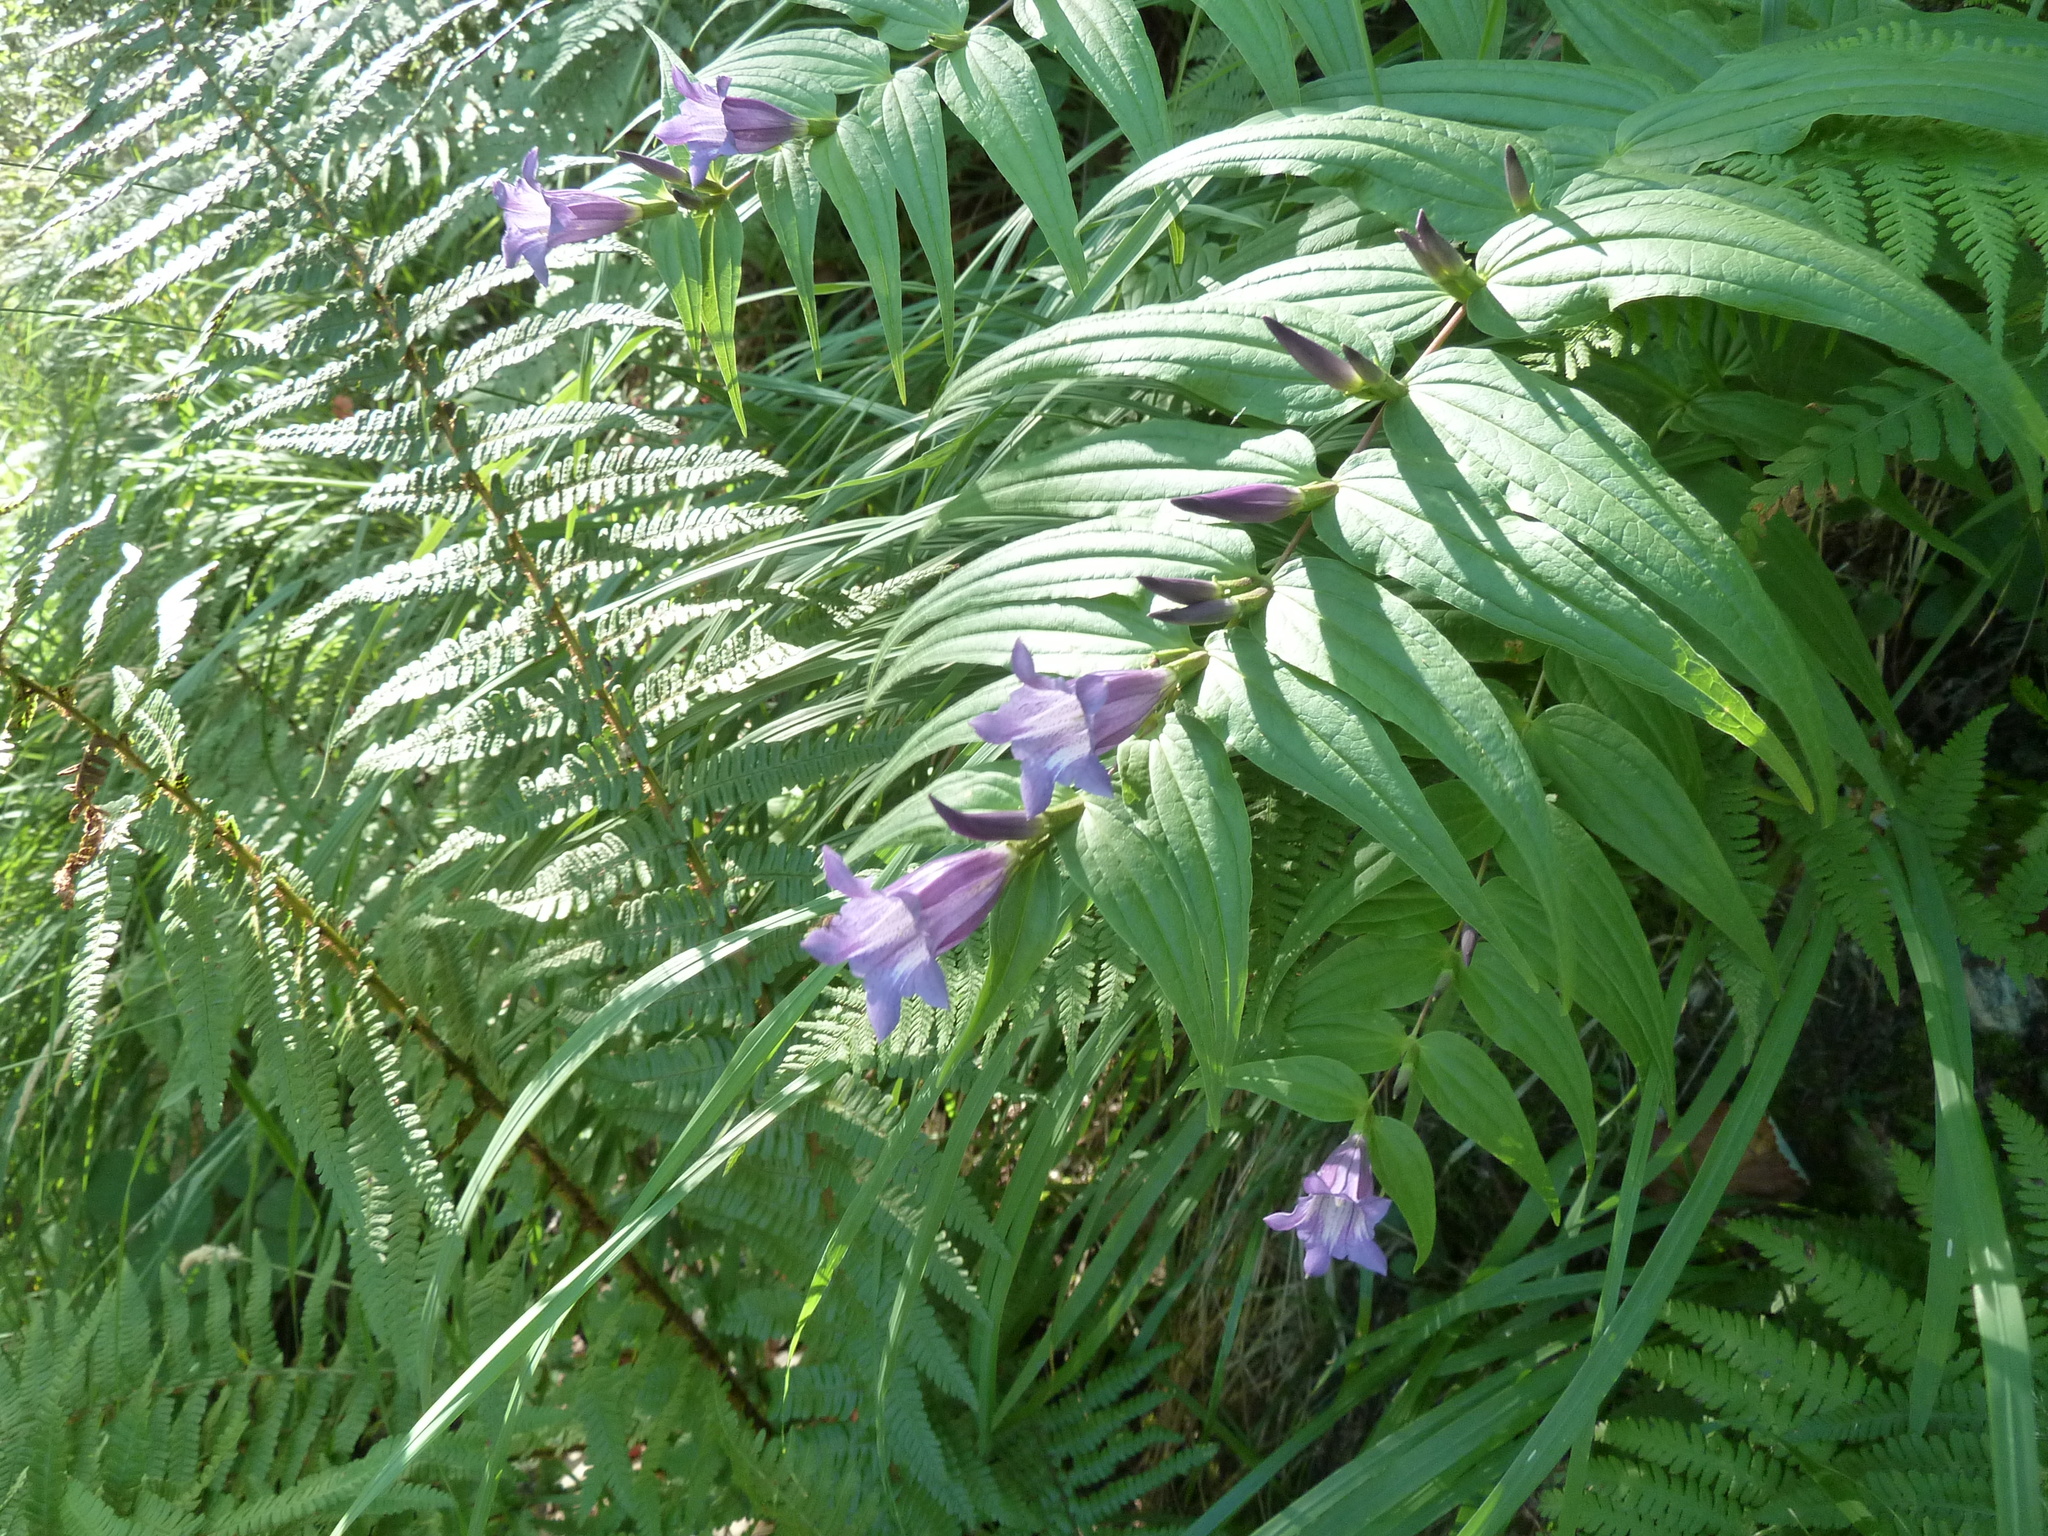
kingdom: Plantae
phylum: Tracheophyta
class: Magnoliopsida
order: Gentianales
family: Gentianaceae
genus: Gentiana
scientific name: Gentiana asclepiadea
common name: Willow gentian
